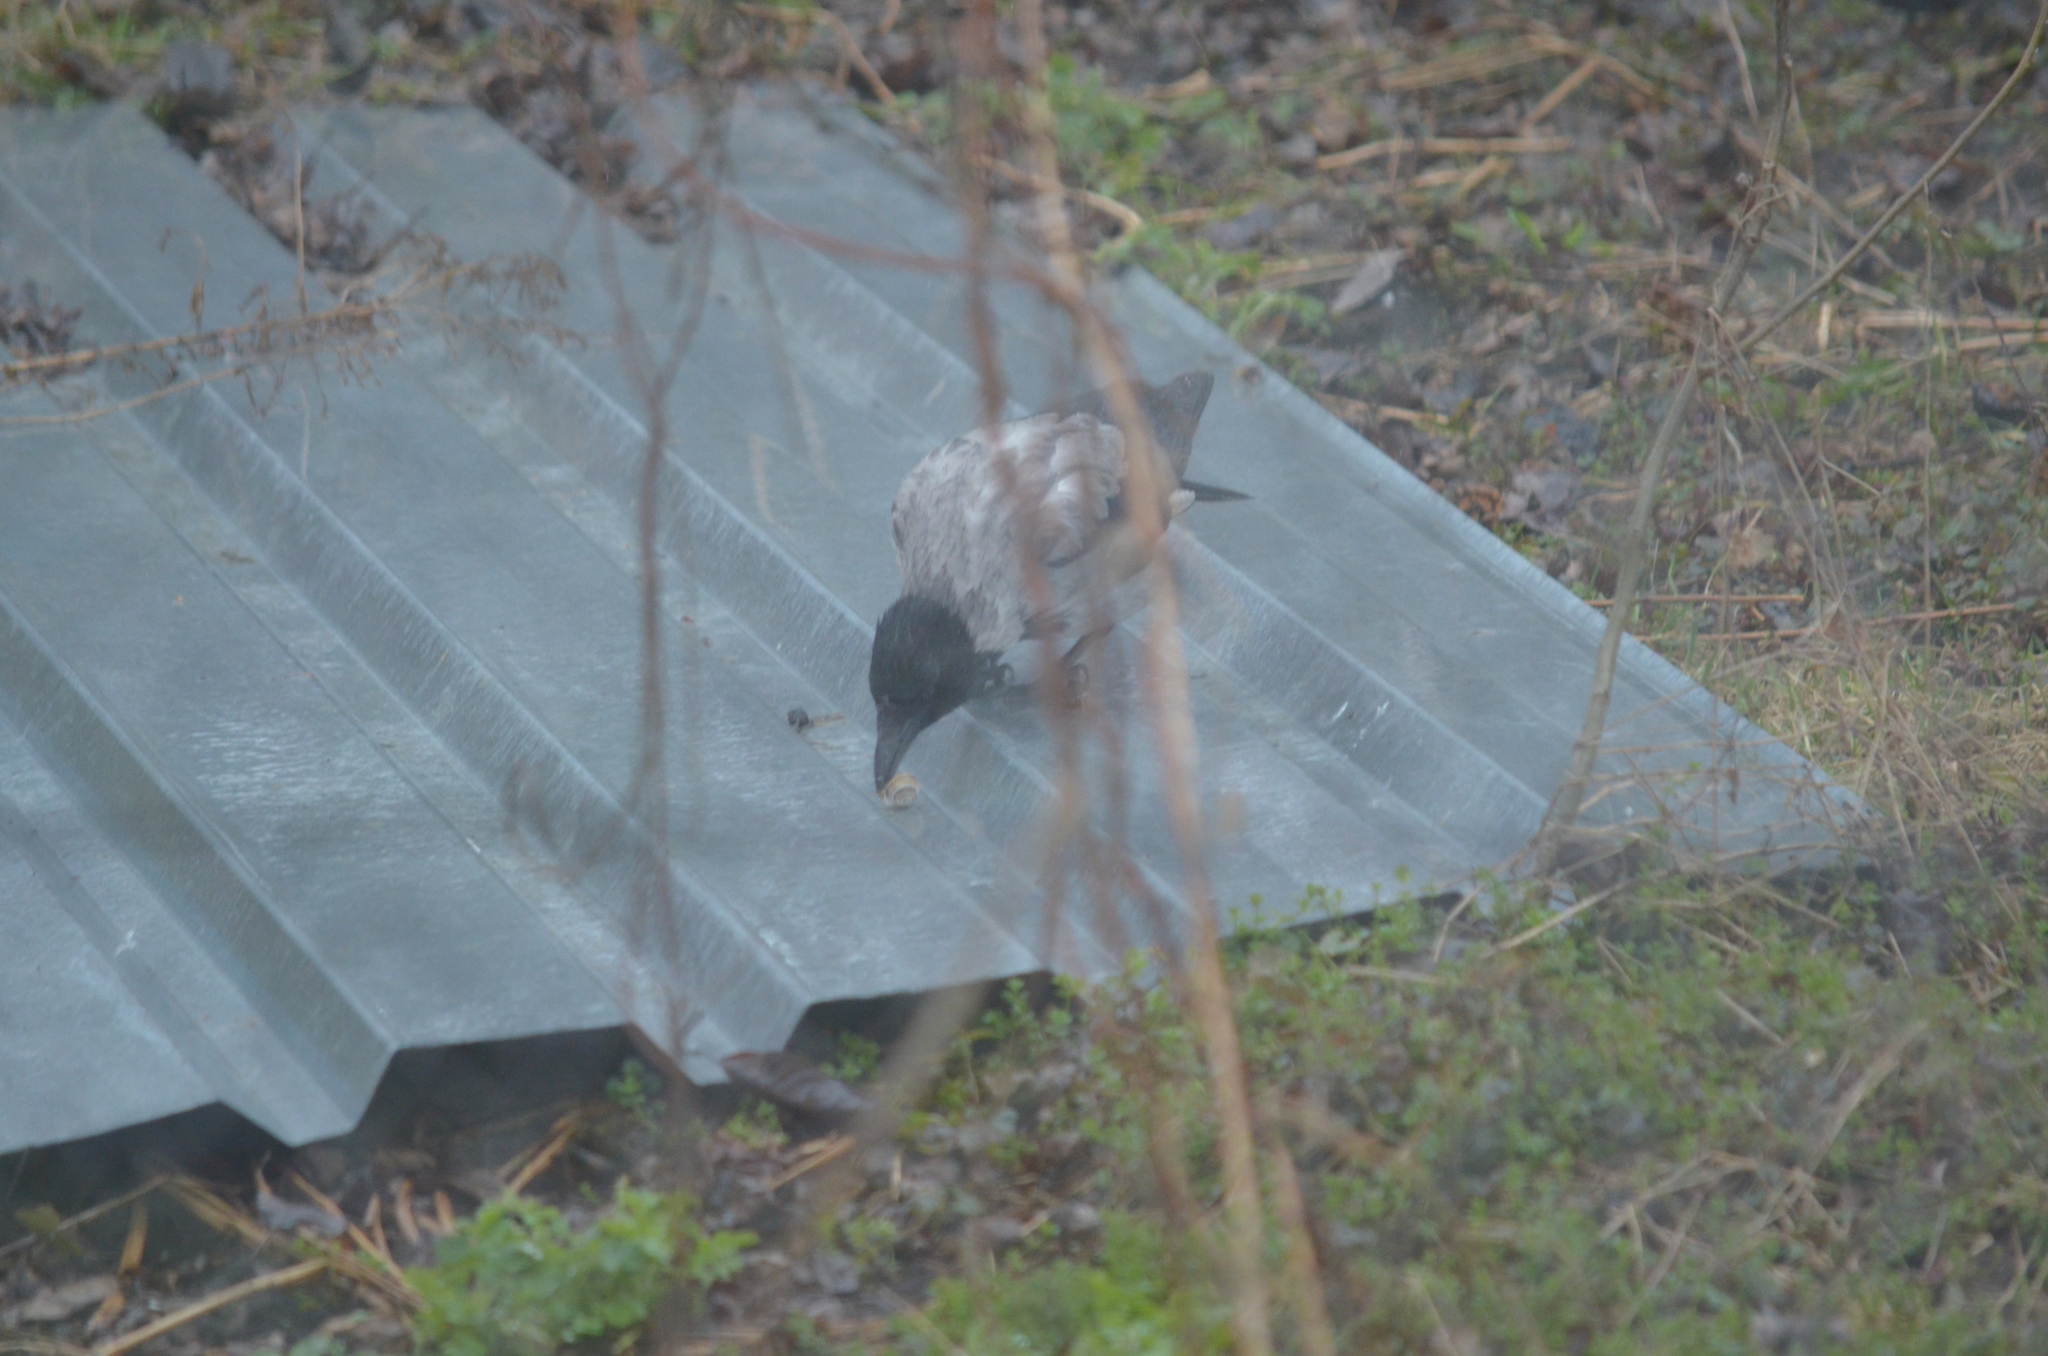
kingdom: Animalia
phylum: Chordata
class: Aves
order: Passeriformes
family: Corvidae
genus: Corvus
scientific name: Corvus cornix
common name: Hooded crow
